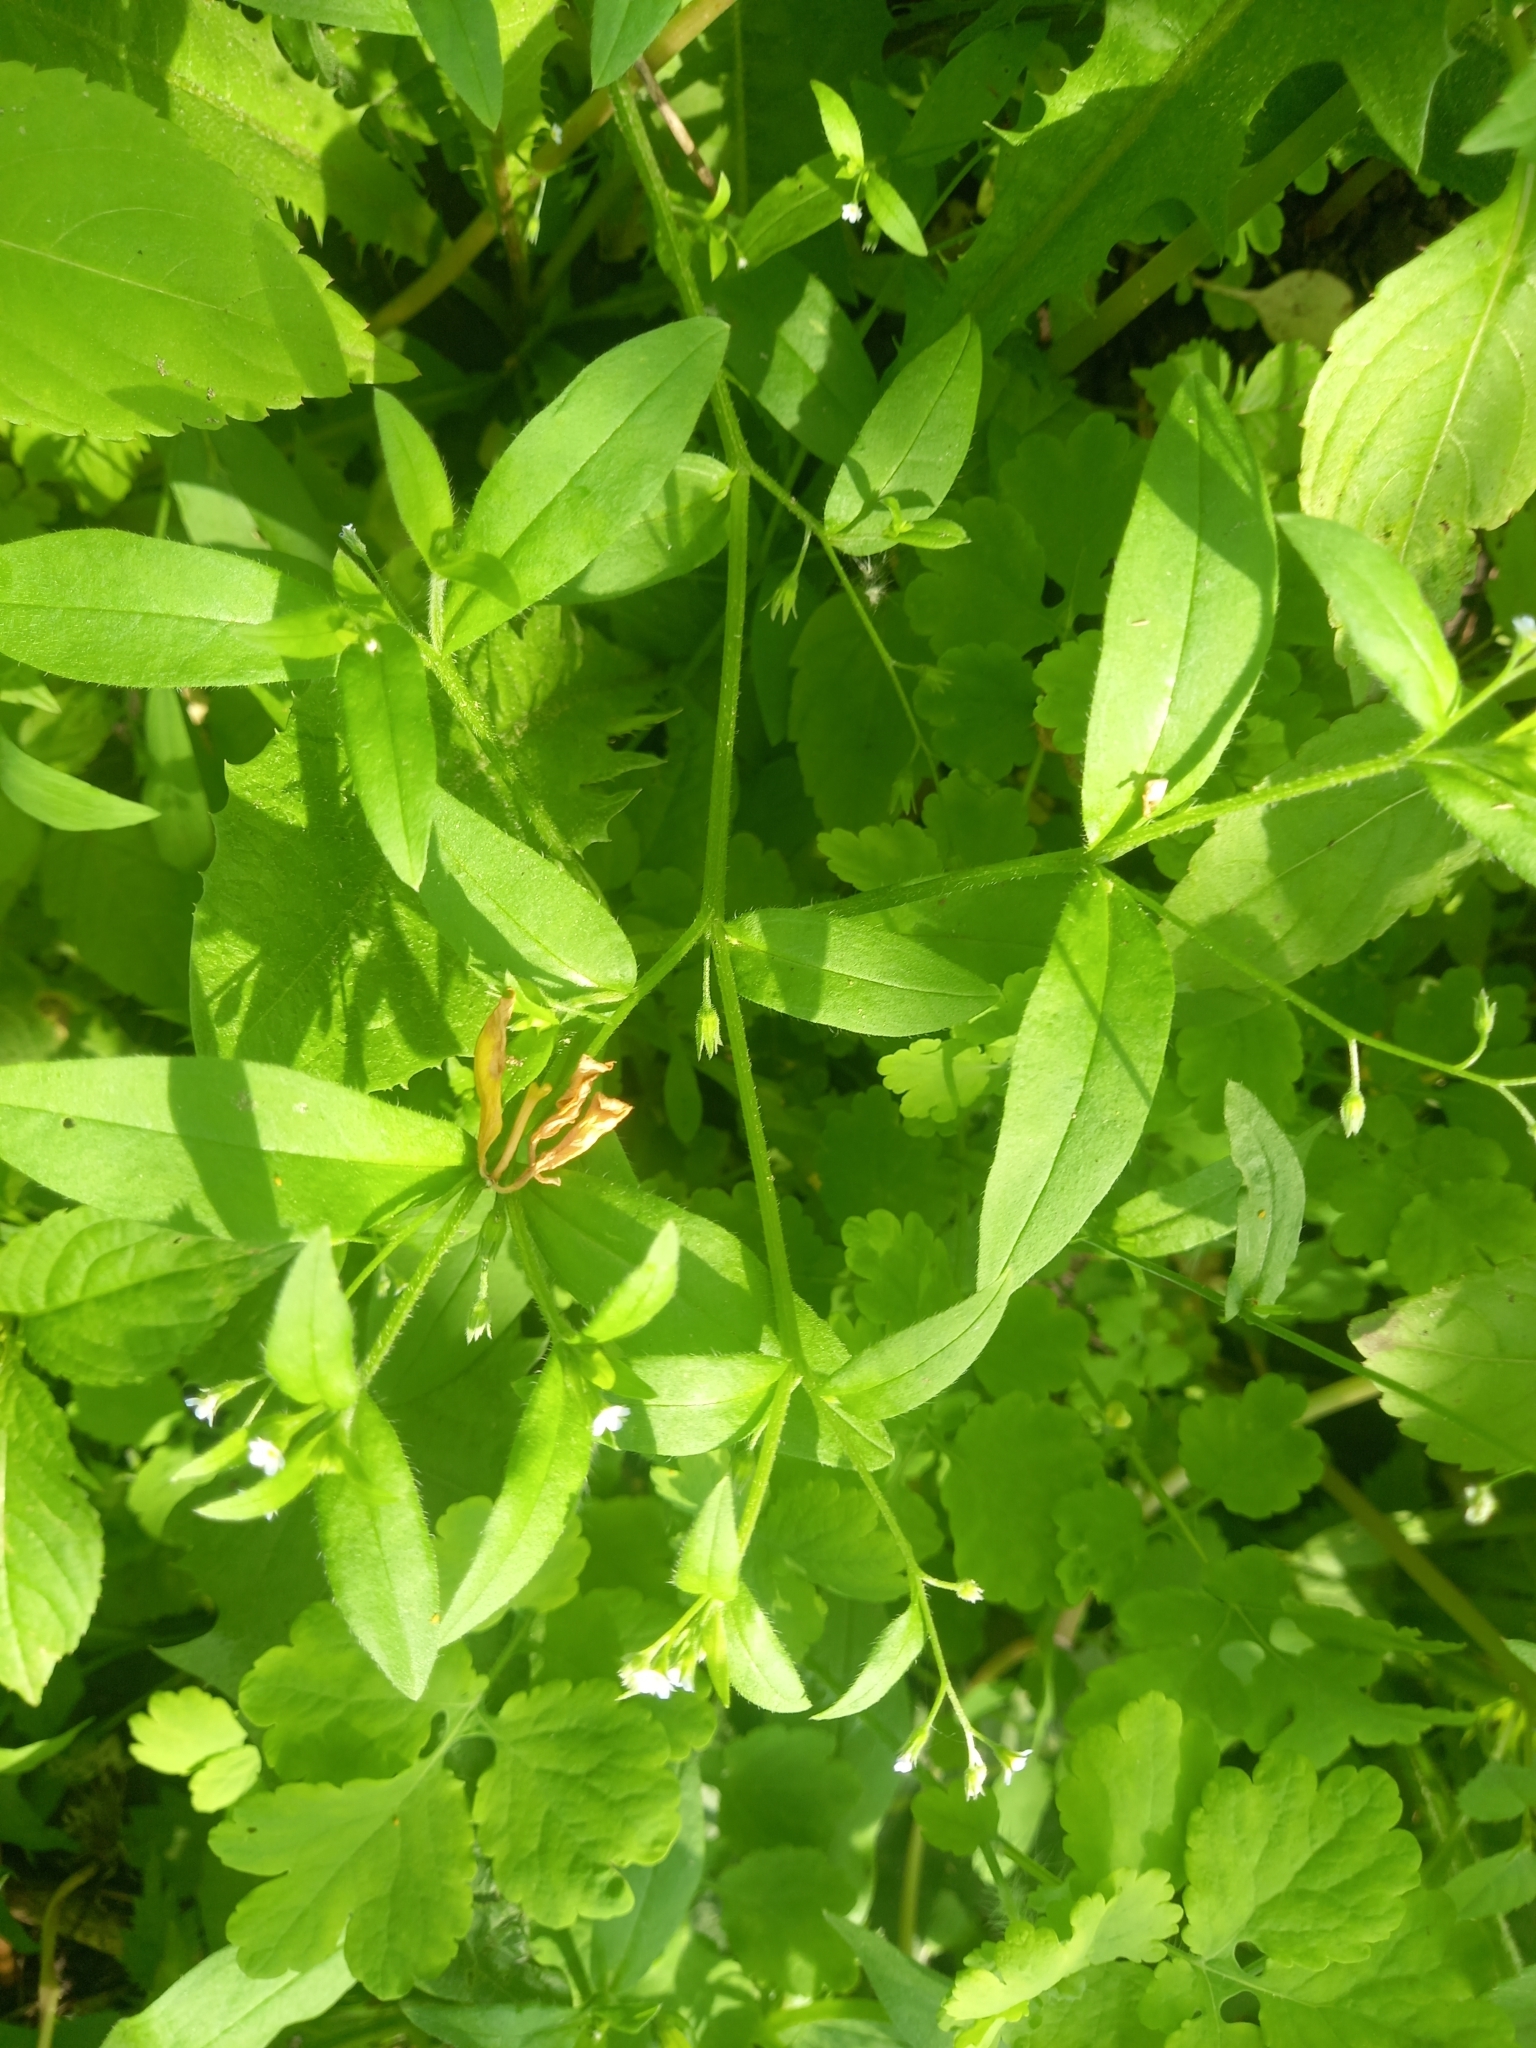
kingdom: Plantae
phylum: Tracheophyta
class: Magnoliopsida
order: Boraginales
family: Boraginaceae
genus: Myosotis
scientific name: Myosotis sparsiflora
